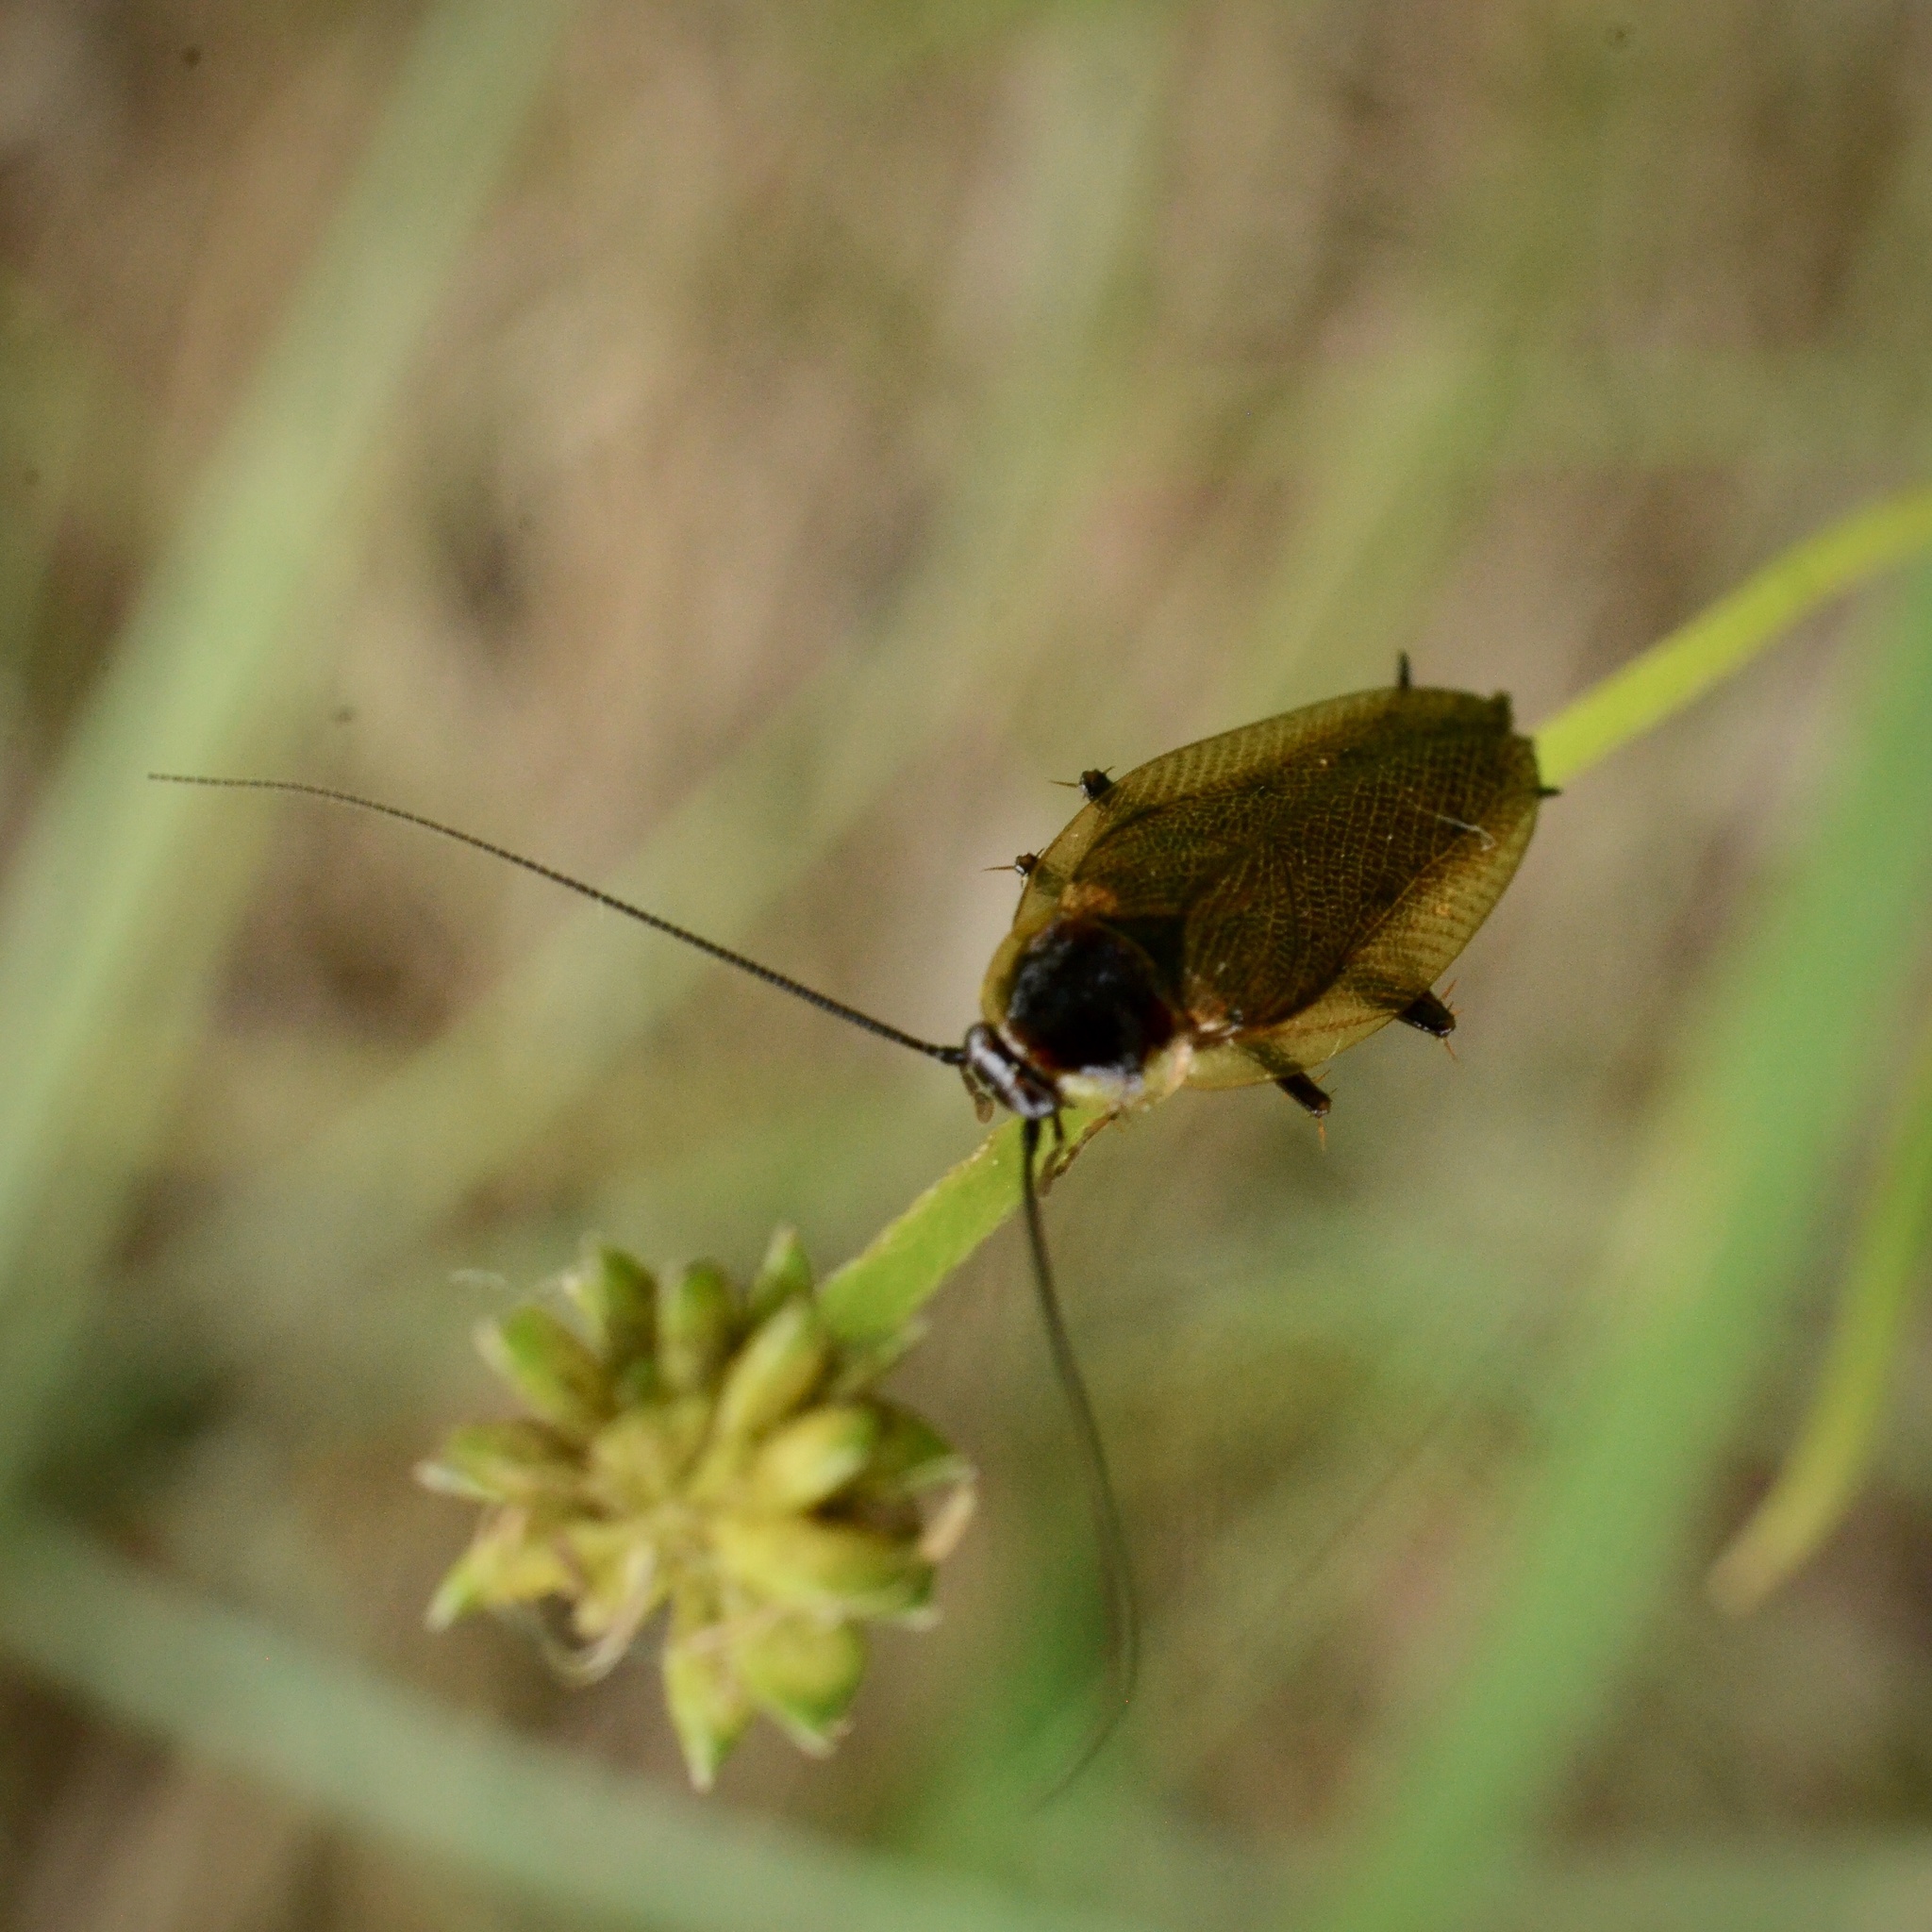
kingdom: Animalia
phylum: Arthropoda
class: Insecta
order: Blattodea
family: Ectobiidae
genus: Ectobius
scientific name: Ectobius lapponicus
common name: Dusky cockroach
